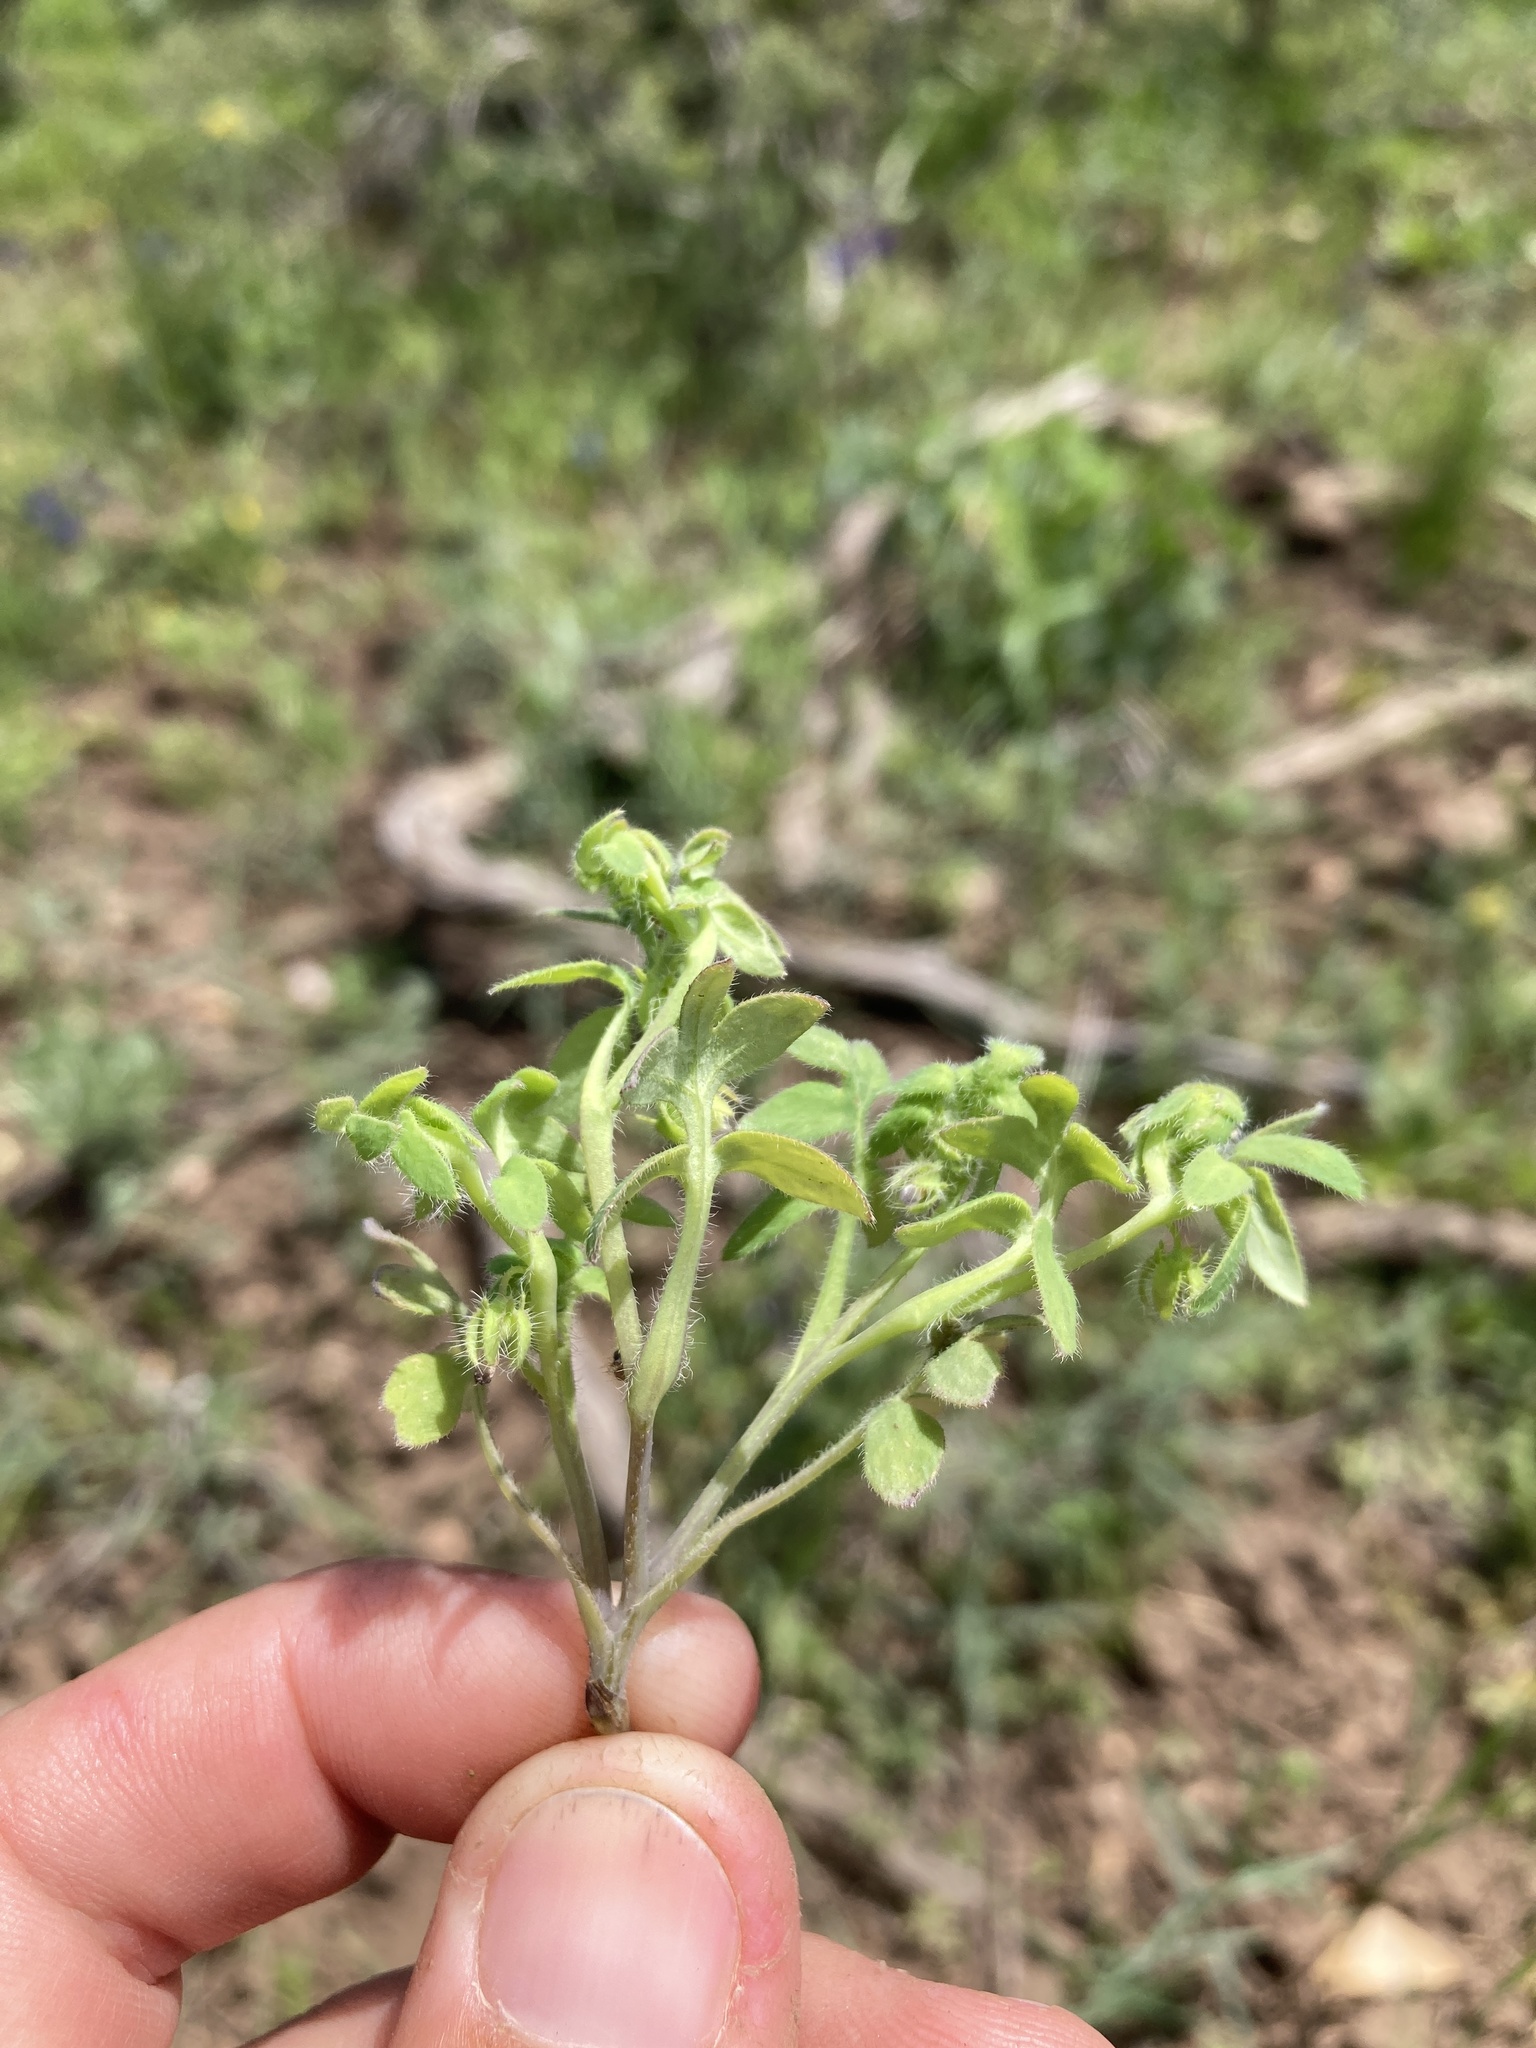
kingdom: Plantae
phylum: Tracheophyta
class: Magnoliopsida
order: Boraginales
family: Hydrophyllaceae
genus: Nemophila
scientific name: Nemophila breviflora
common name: Great basin baby-blue-eyes
